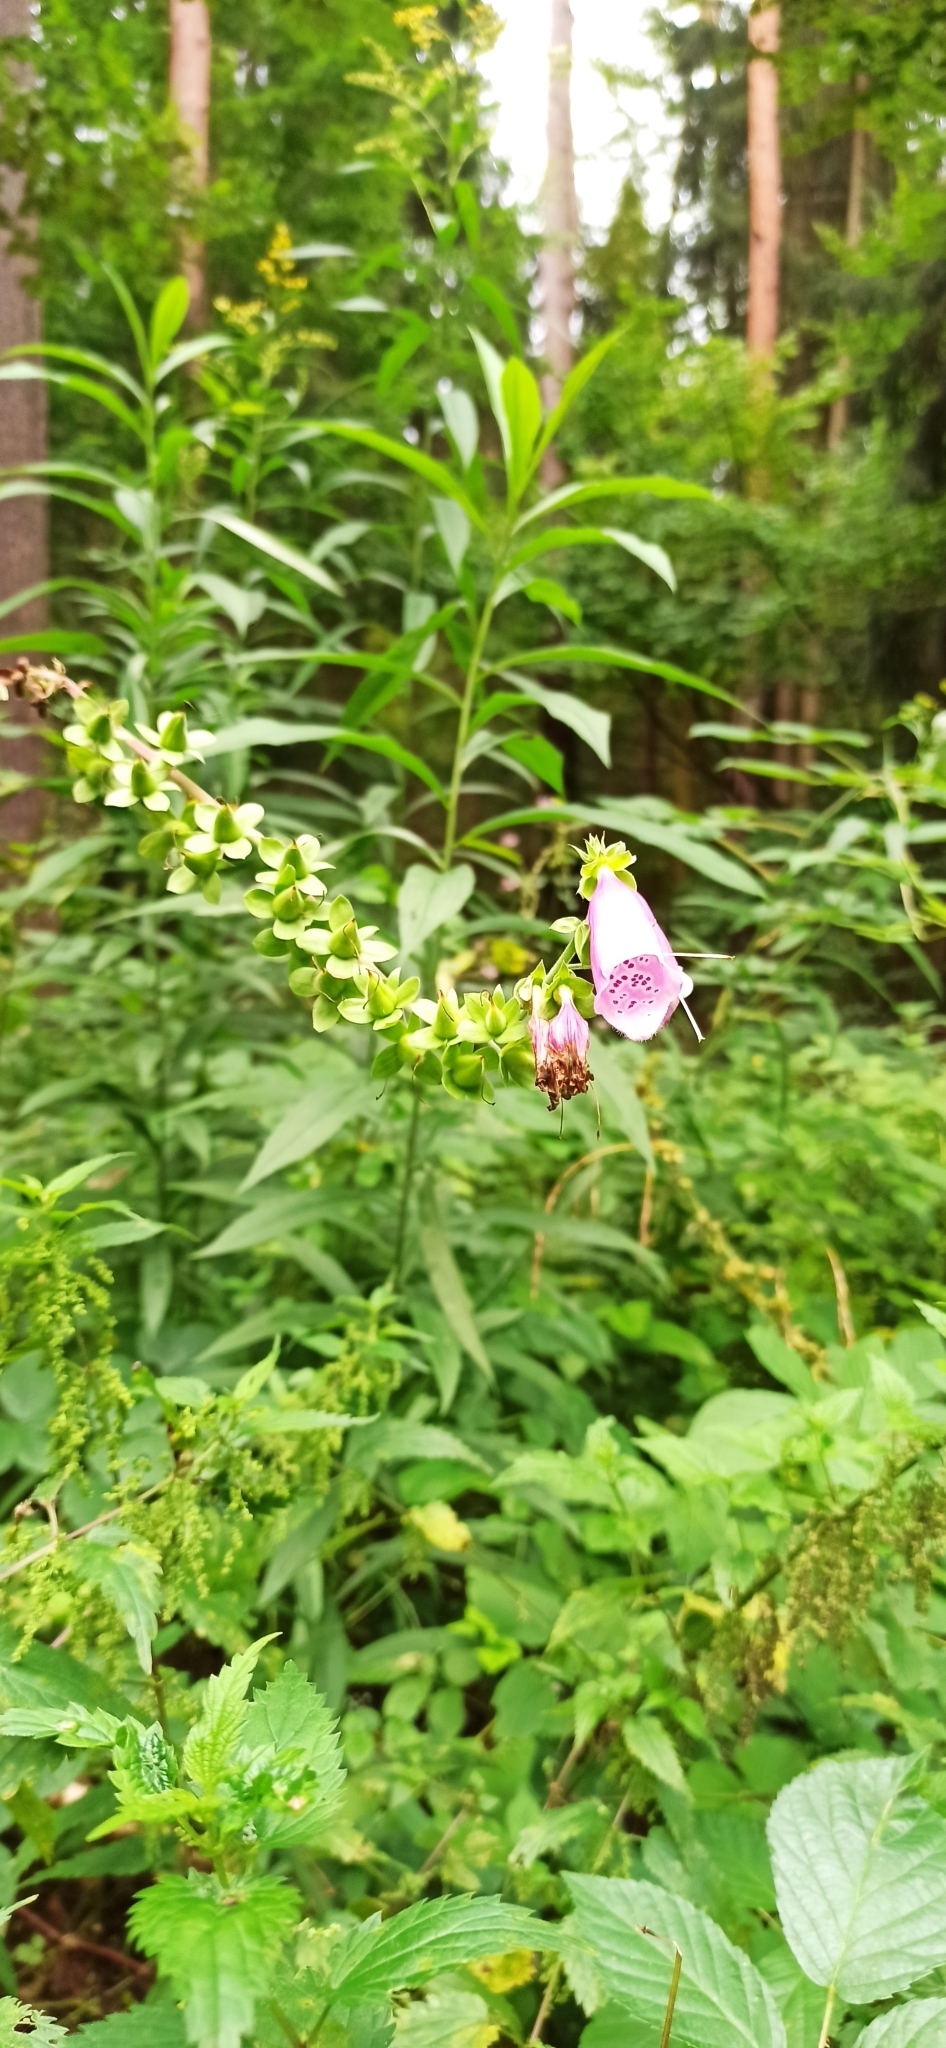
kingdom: Plantae
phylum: Tracheophyta
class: Magnoliopsida
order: Lamiales
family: Plantaginaceae
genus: Digitalis
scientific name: Digitalis purpurea
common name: Foxglove
